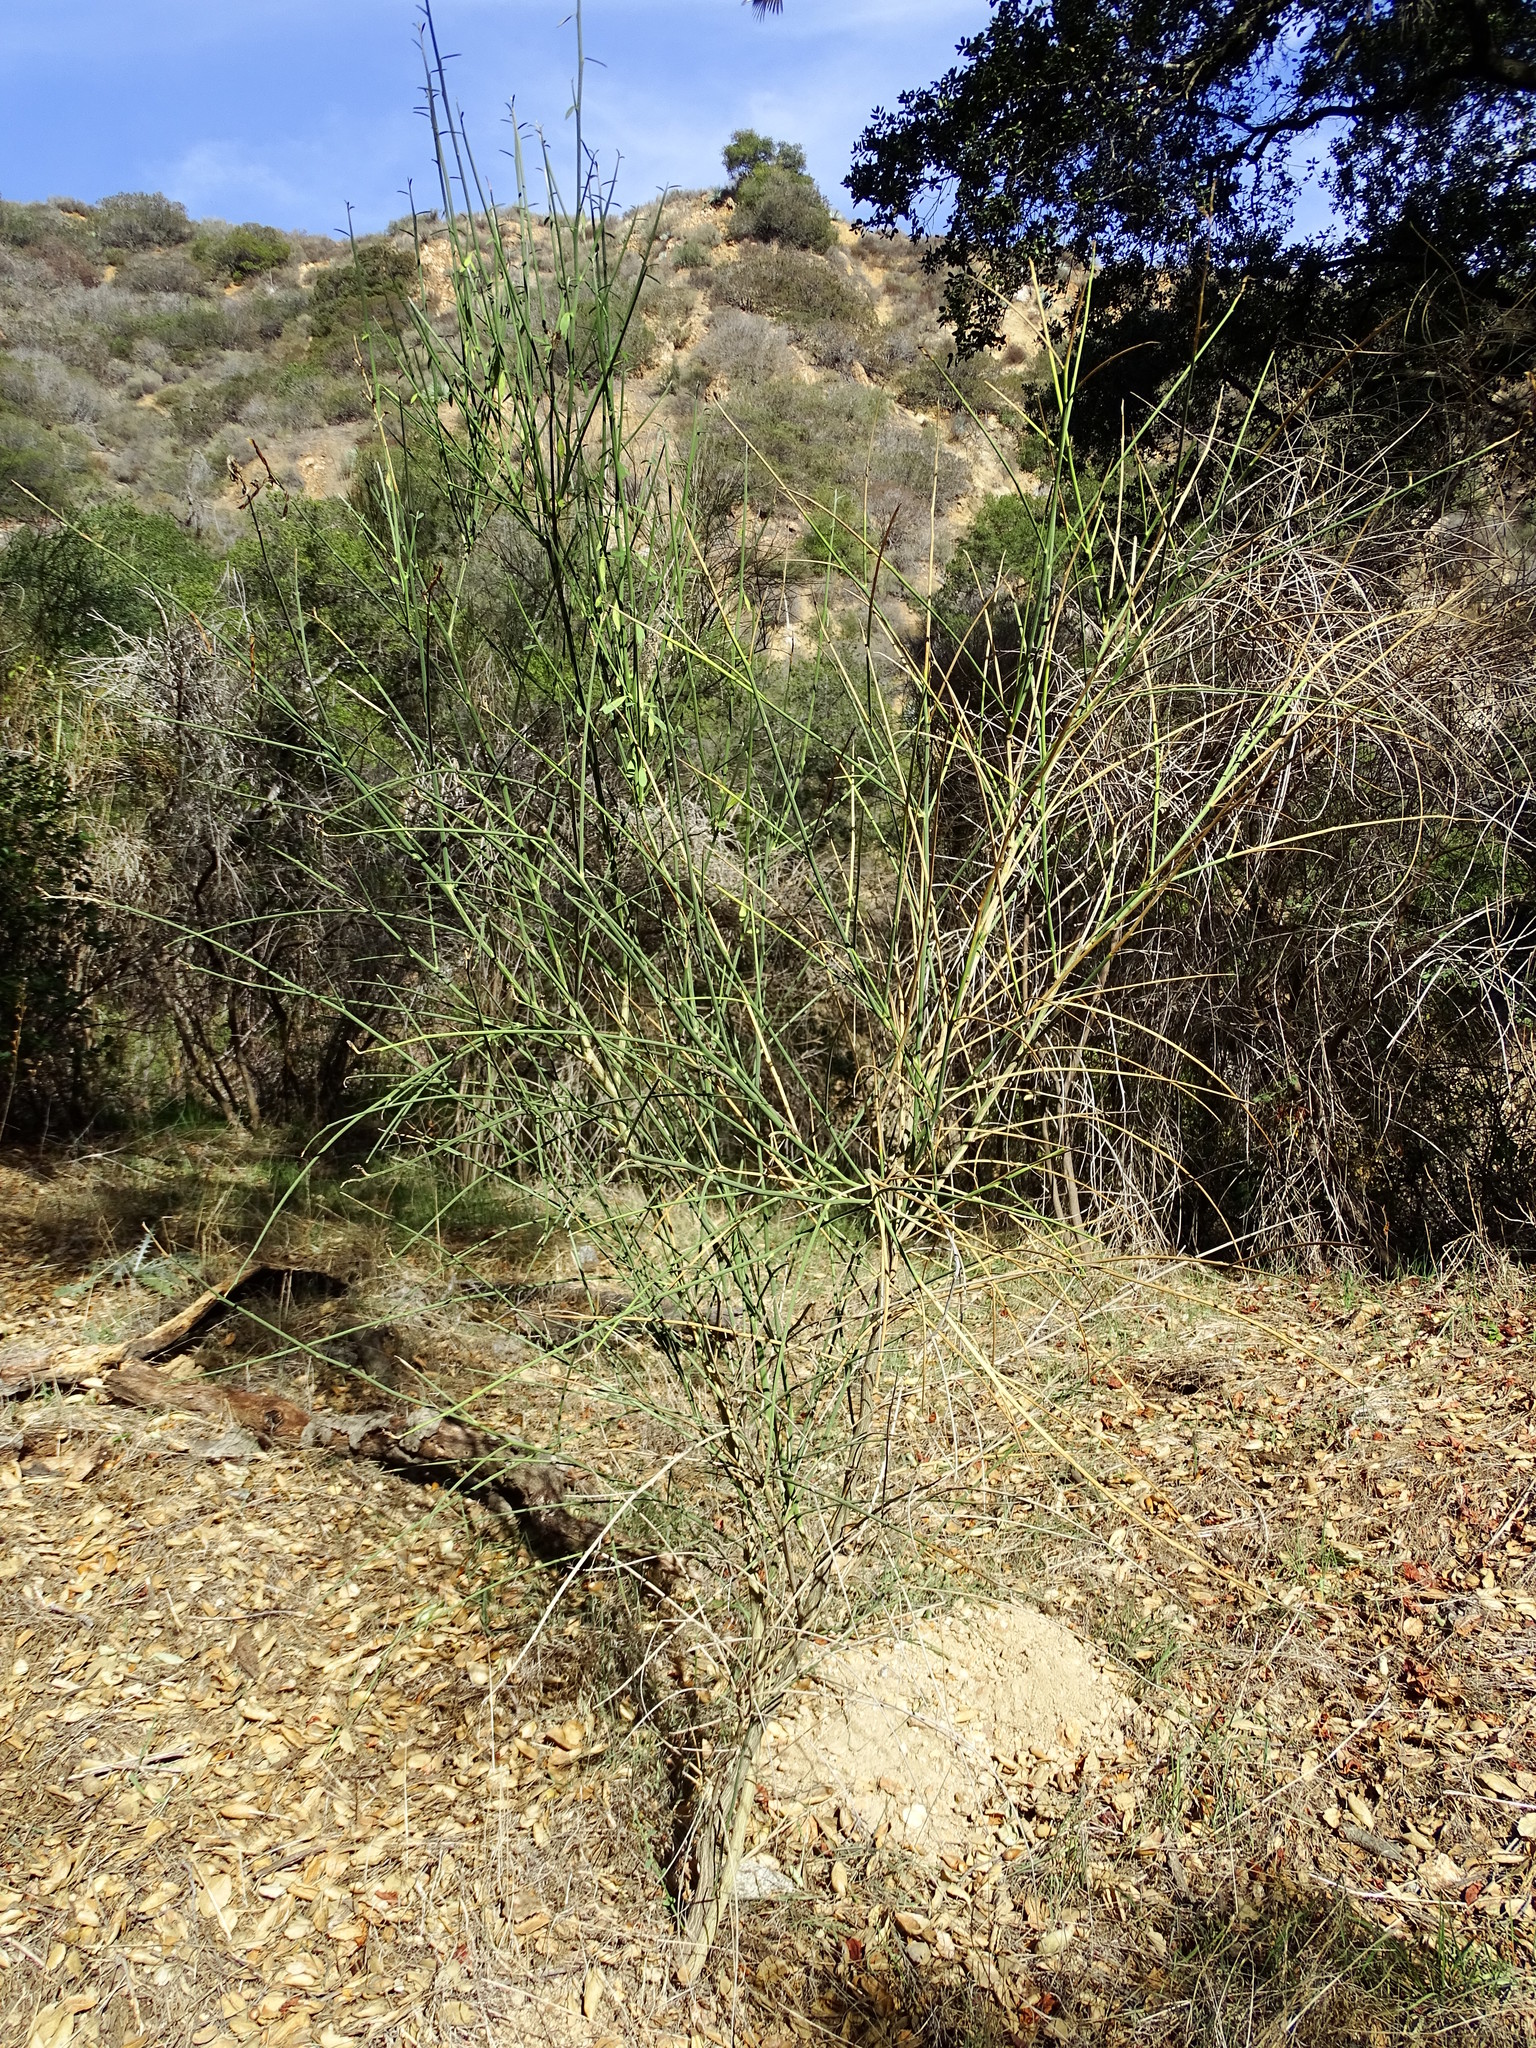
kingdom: Plantae
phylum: Tracheophyta
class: Magnoliopsida
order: Fabales
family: Fabaceae
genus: Spartium
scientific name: Spartium junceum
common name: Spanish broom
